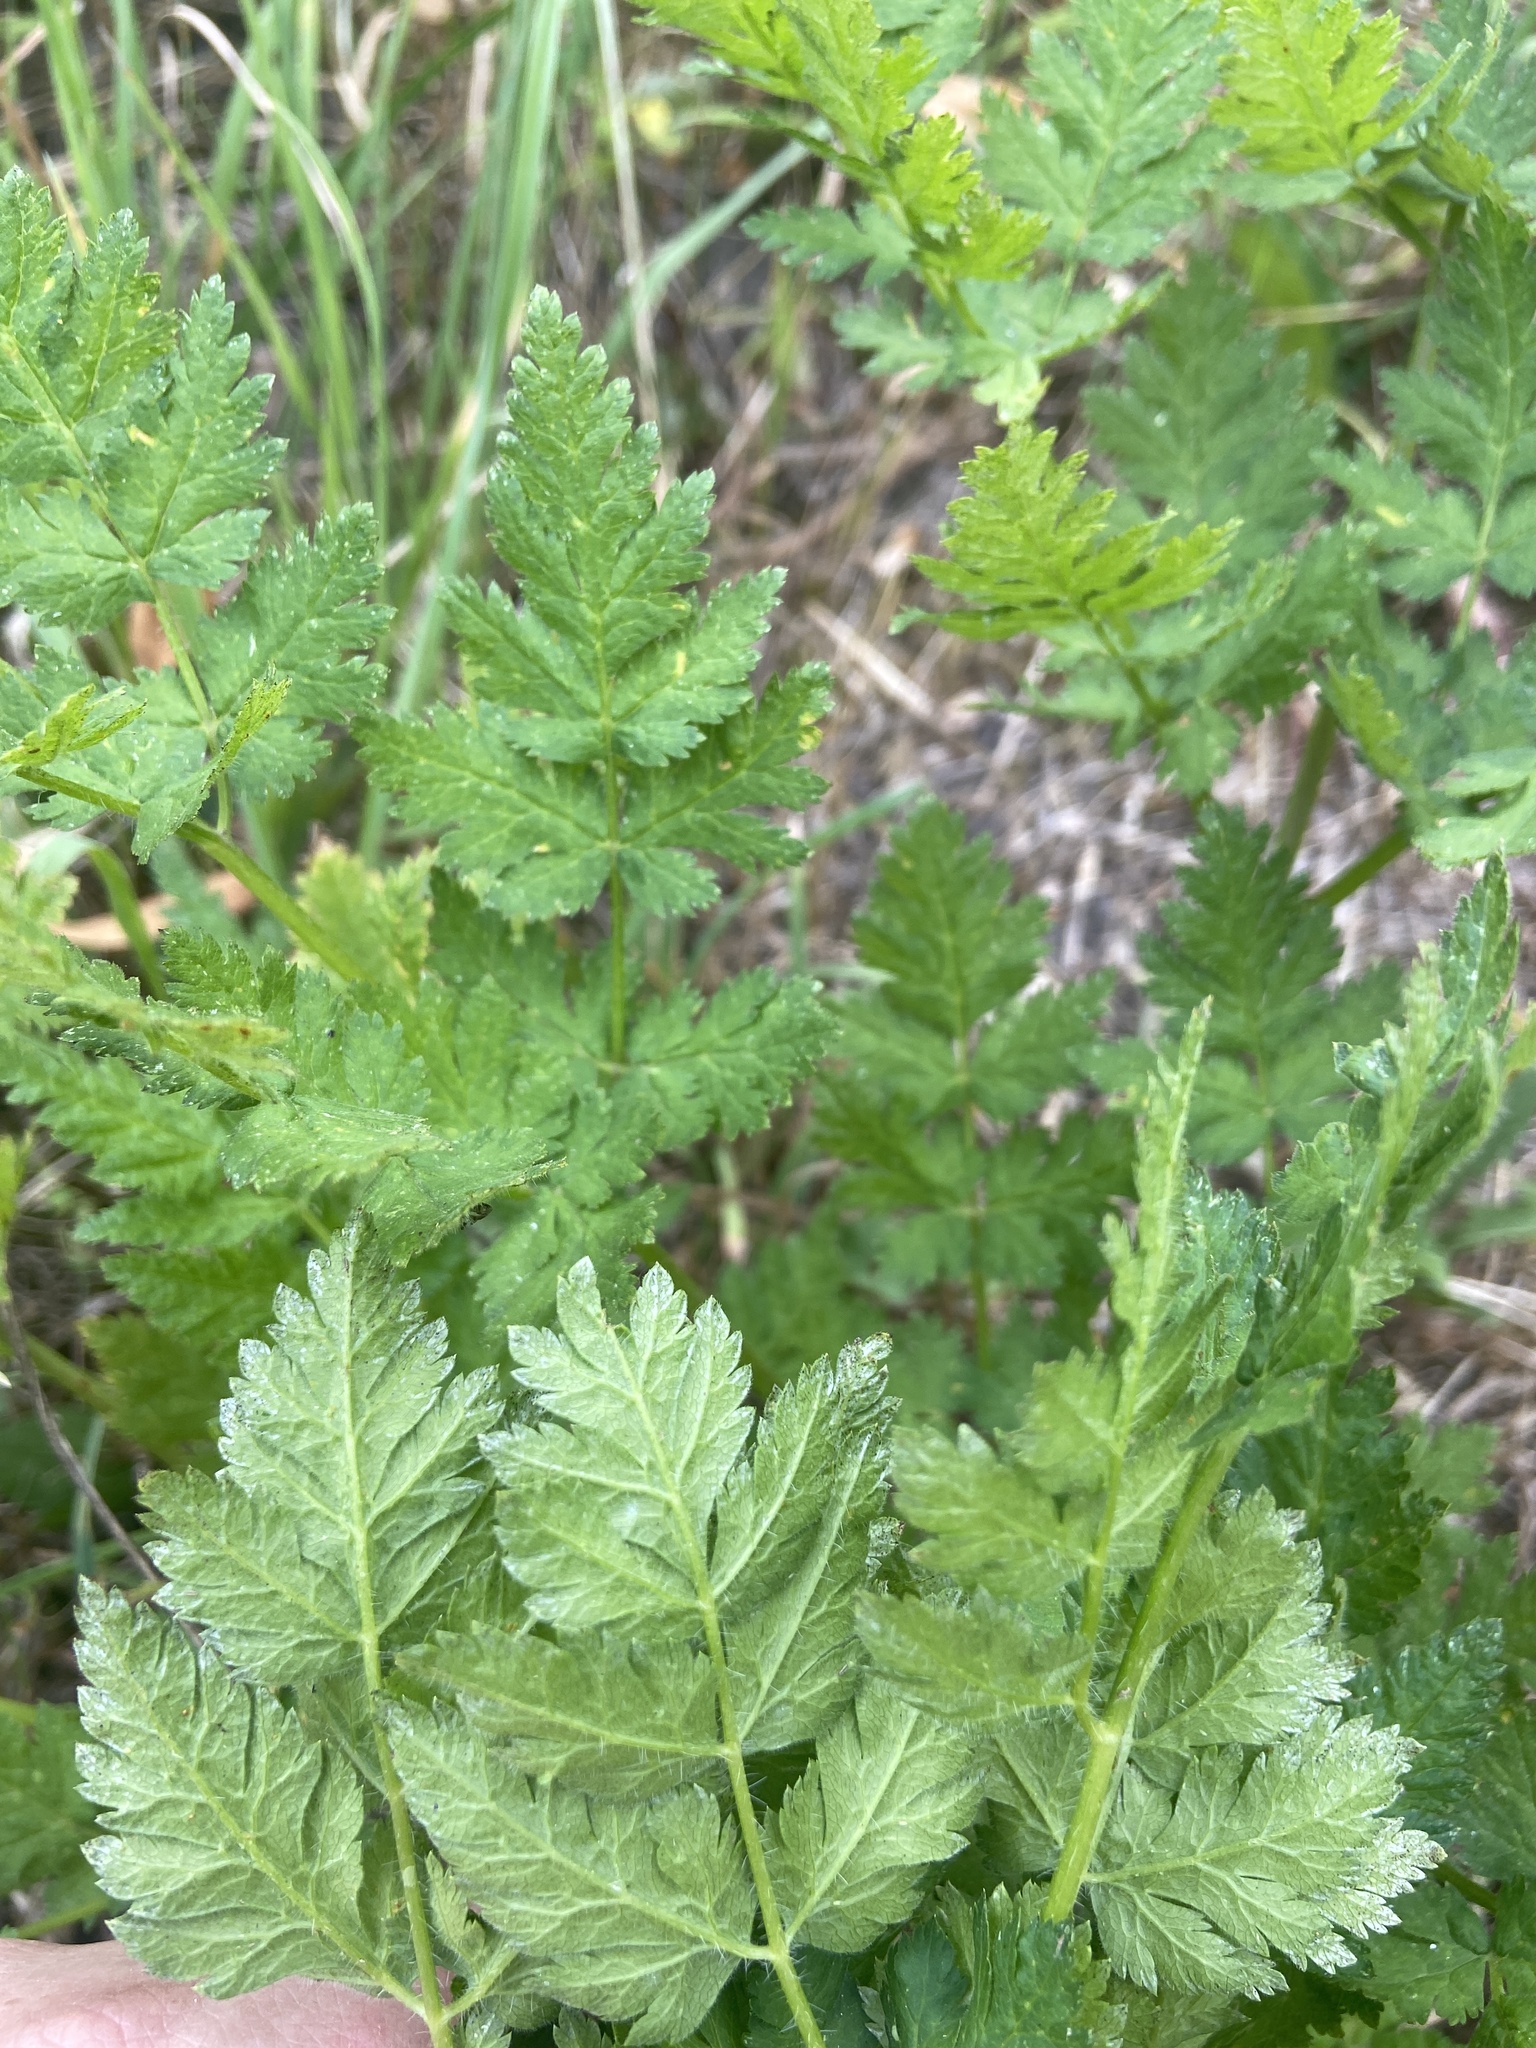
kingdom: Plantae
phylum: Tracheophyta
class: Magnoliopsida
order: Apiales
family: Apiaceae
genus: Myrrhis
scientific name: Myrrhis odorata
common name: Sweet cicely
